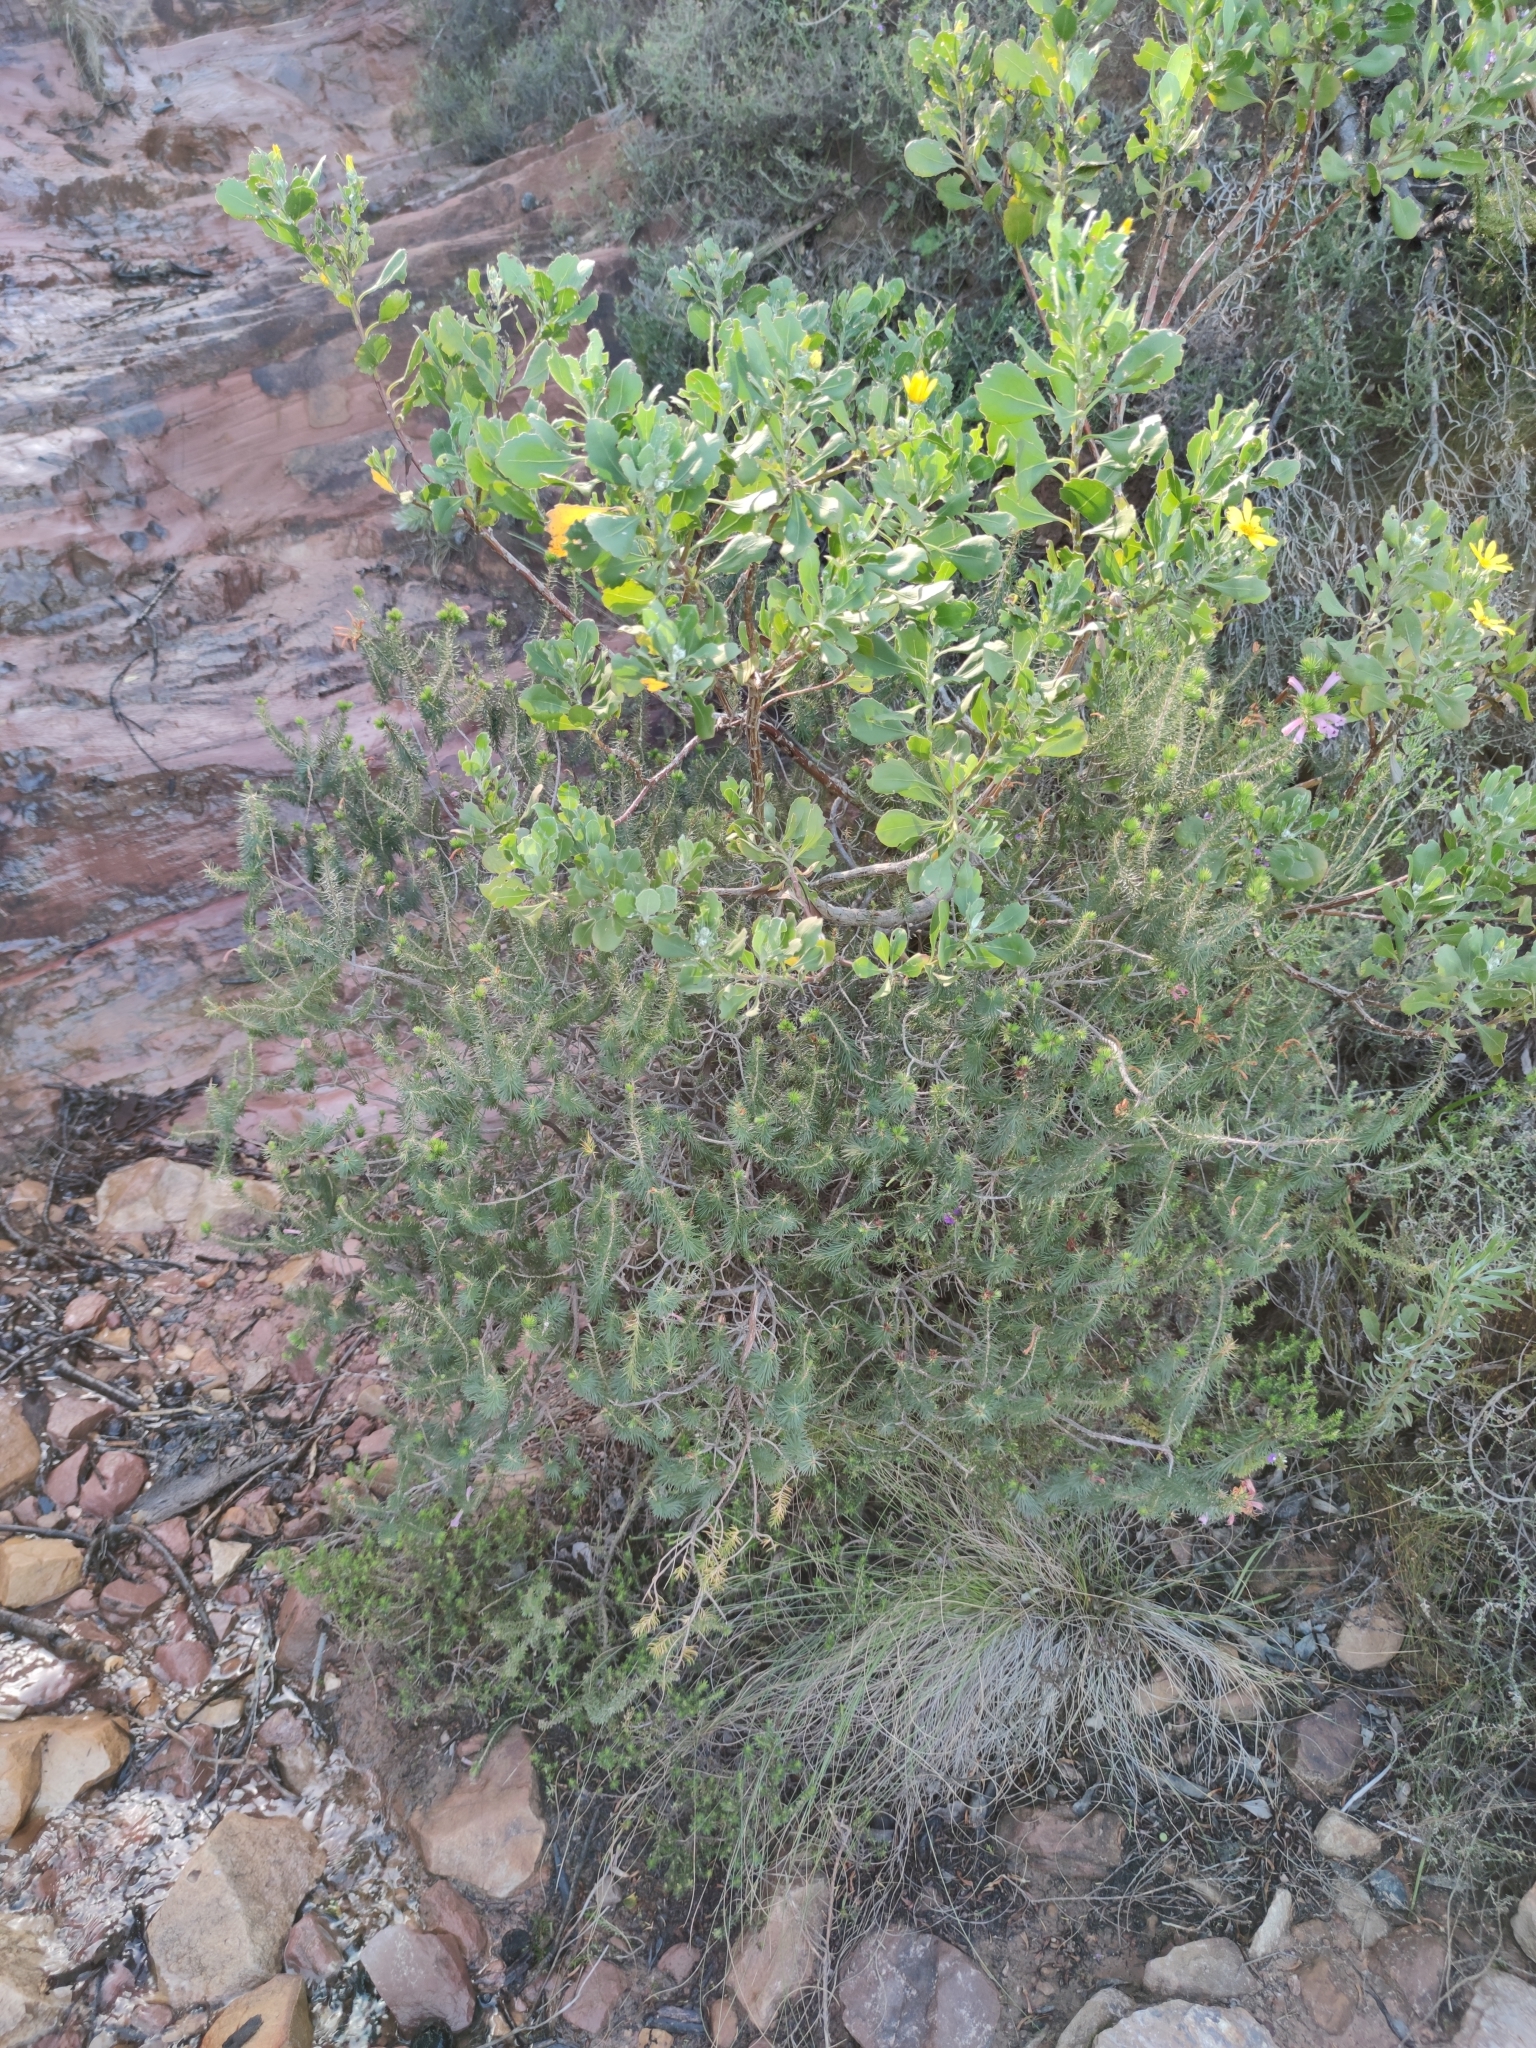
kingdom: Plantae
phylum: Tracheophyta
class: Magnoliopsida
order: Ericales
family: Ericaceae
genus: Erica
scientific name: Erica abietina
